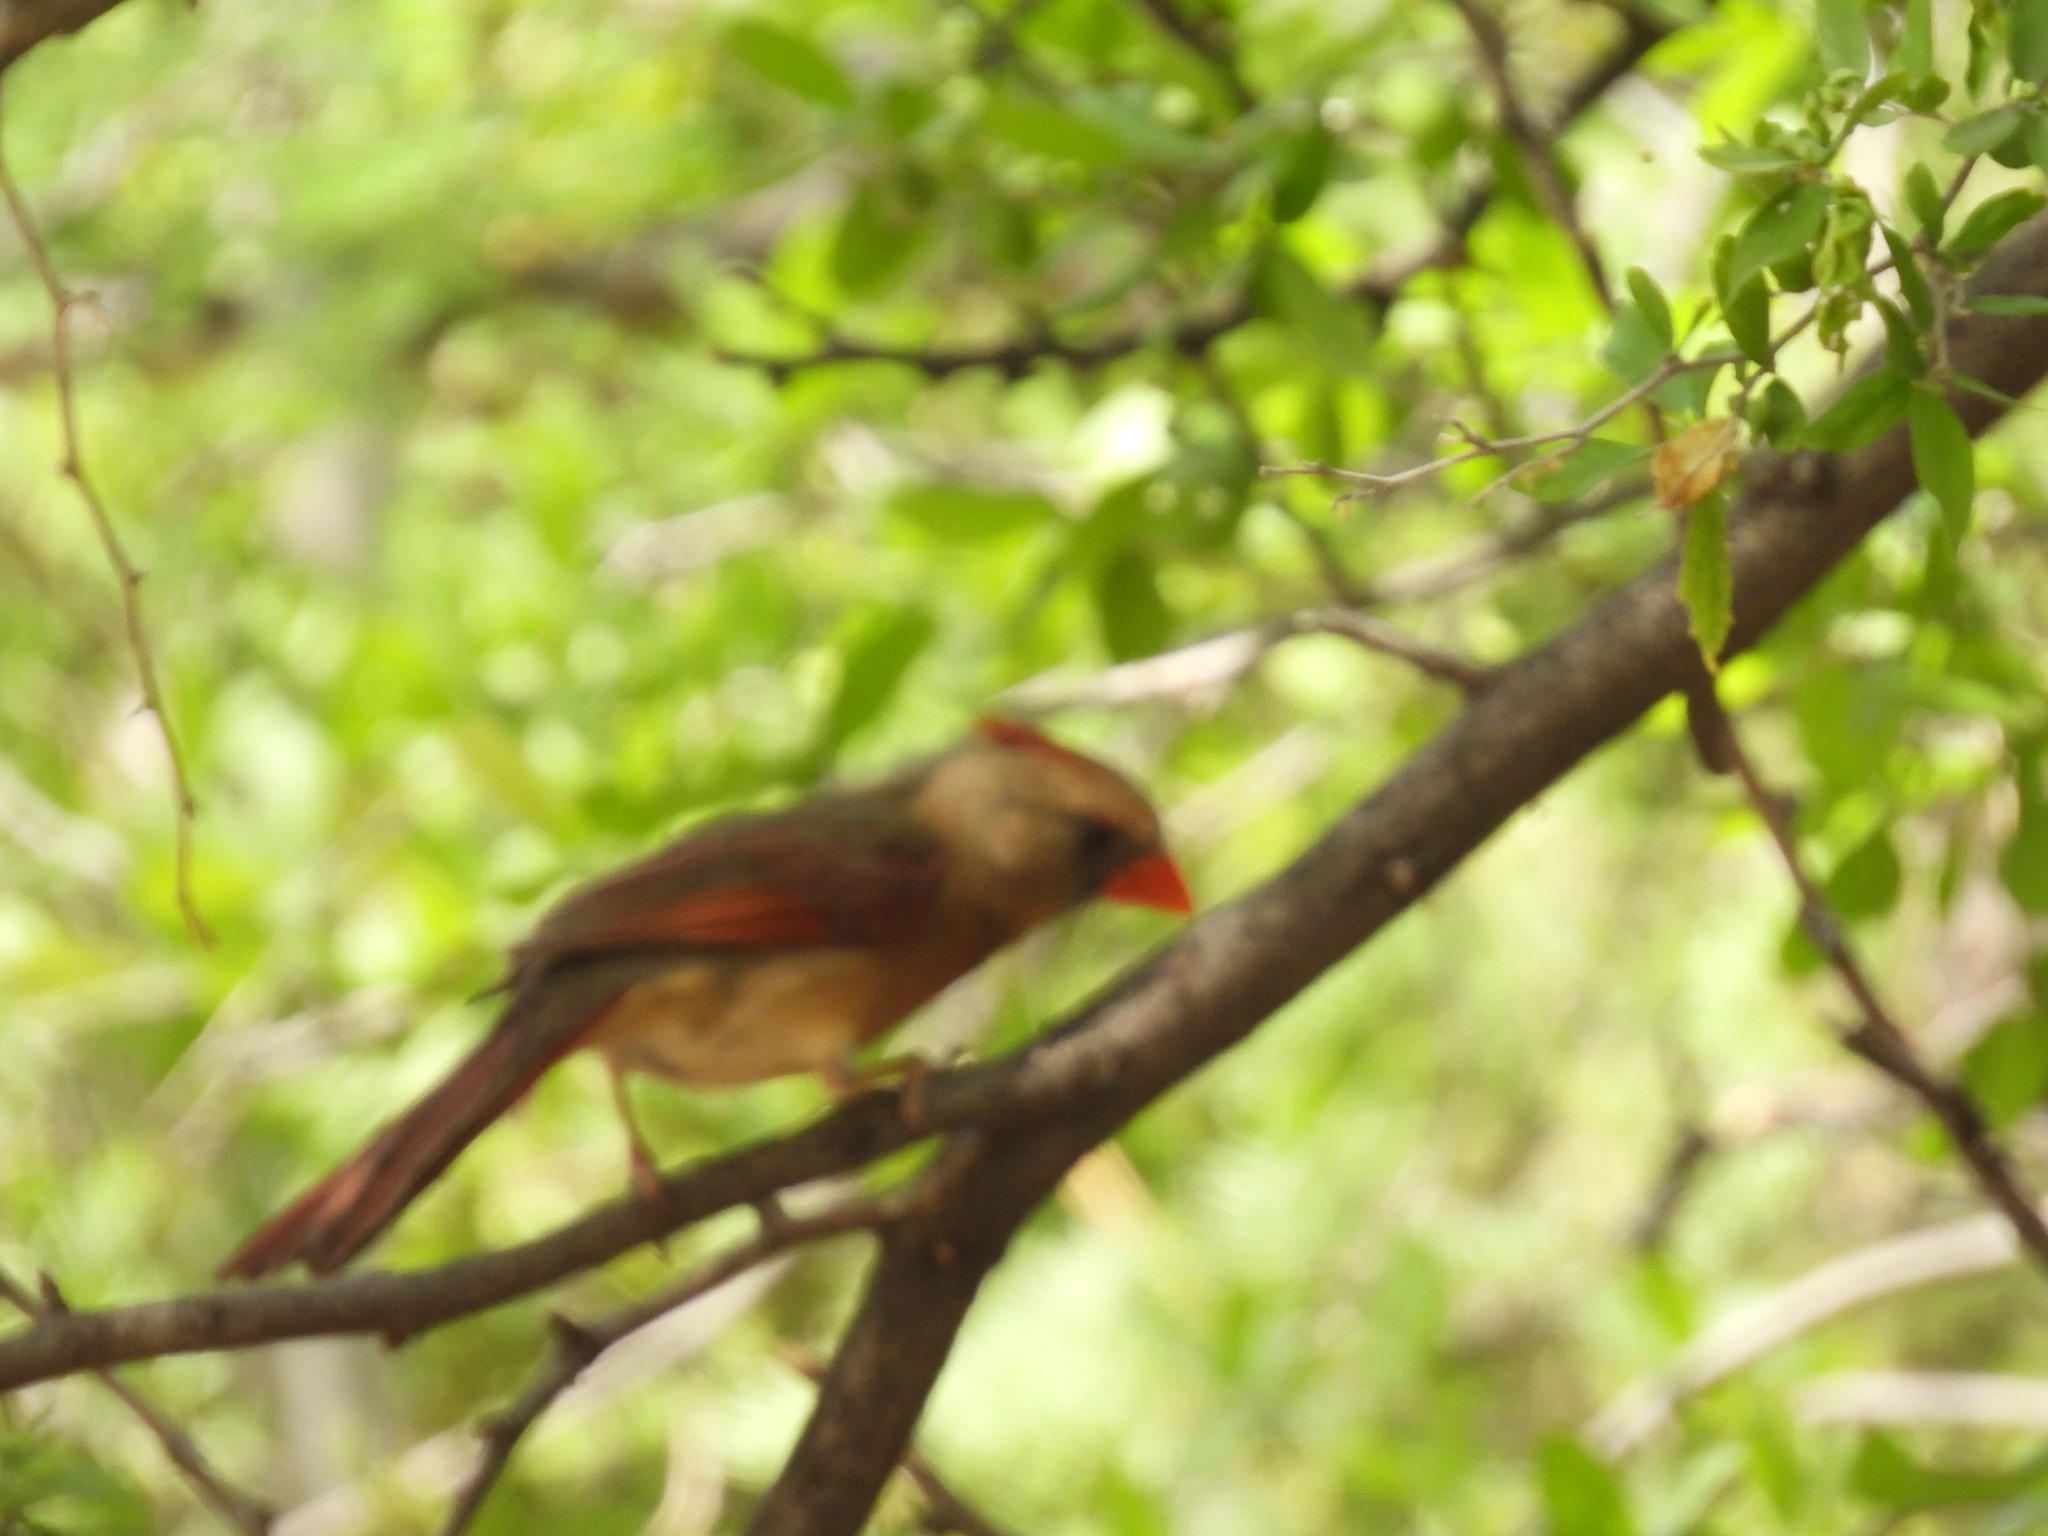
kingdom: Animalia
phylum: Chordata
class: Aves
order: Passeriformes
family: Cardinalidae
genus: Cardinalis
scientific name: Cardinalis cardinalis
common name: Northern cardinal
